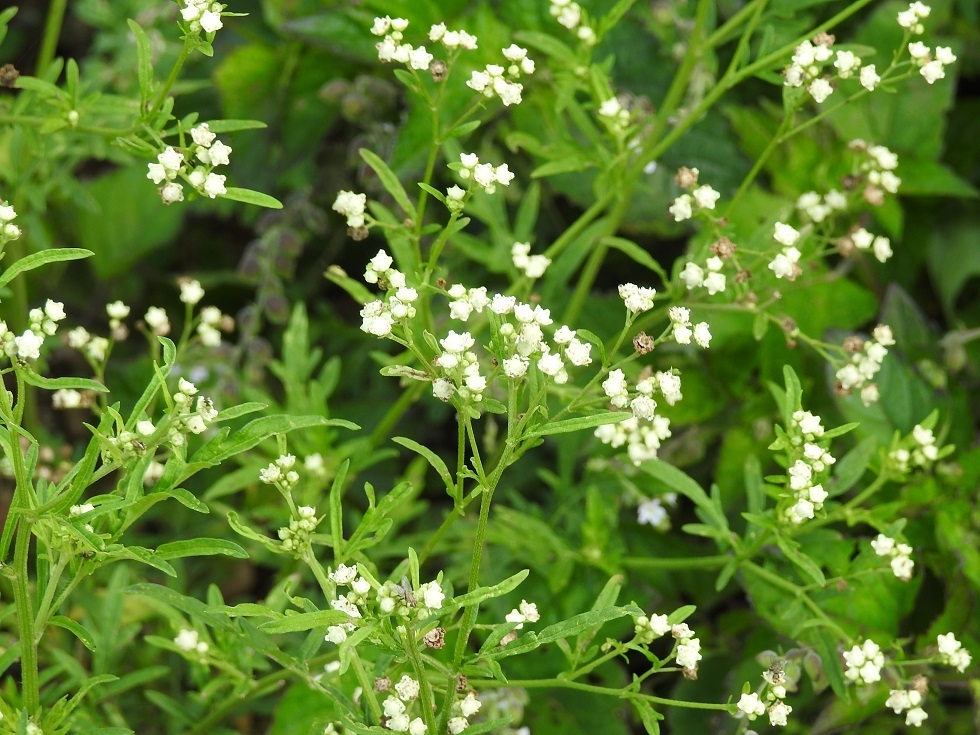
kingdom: Plantae
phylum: Tracheophyta
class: Magnoliopsida
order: Asterales
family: Asteraceae
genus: Parthenium
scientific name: Parthenium hysterophorus
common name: Santa maria feverfew
